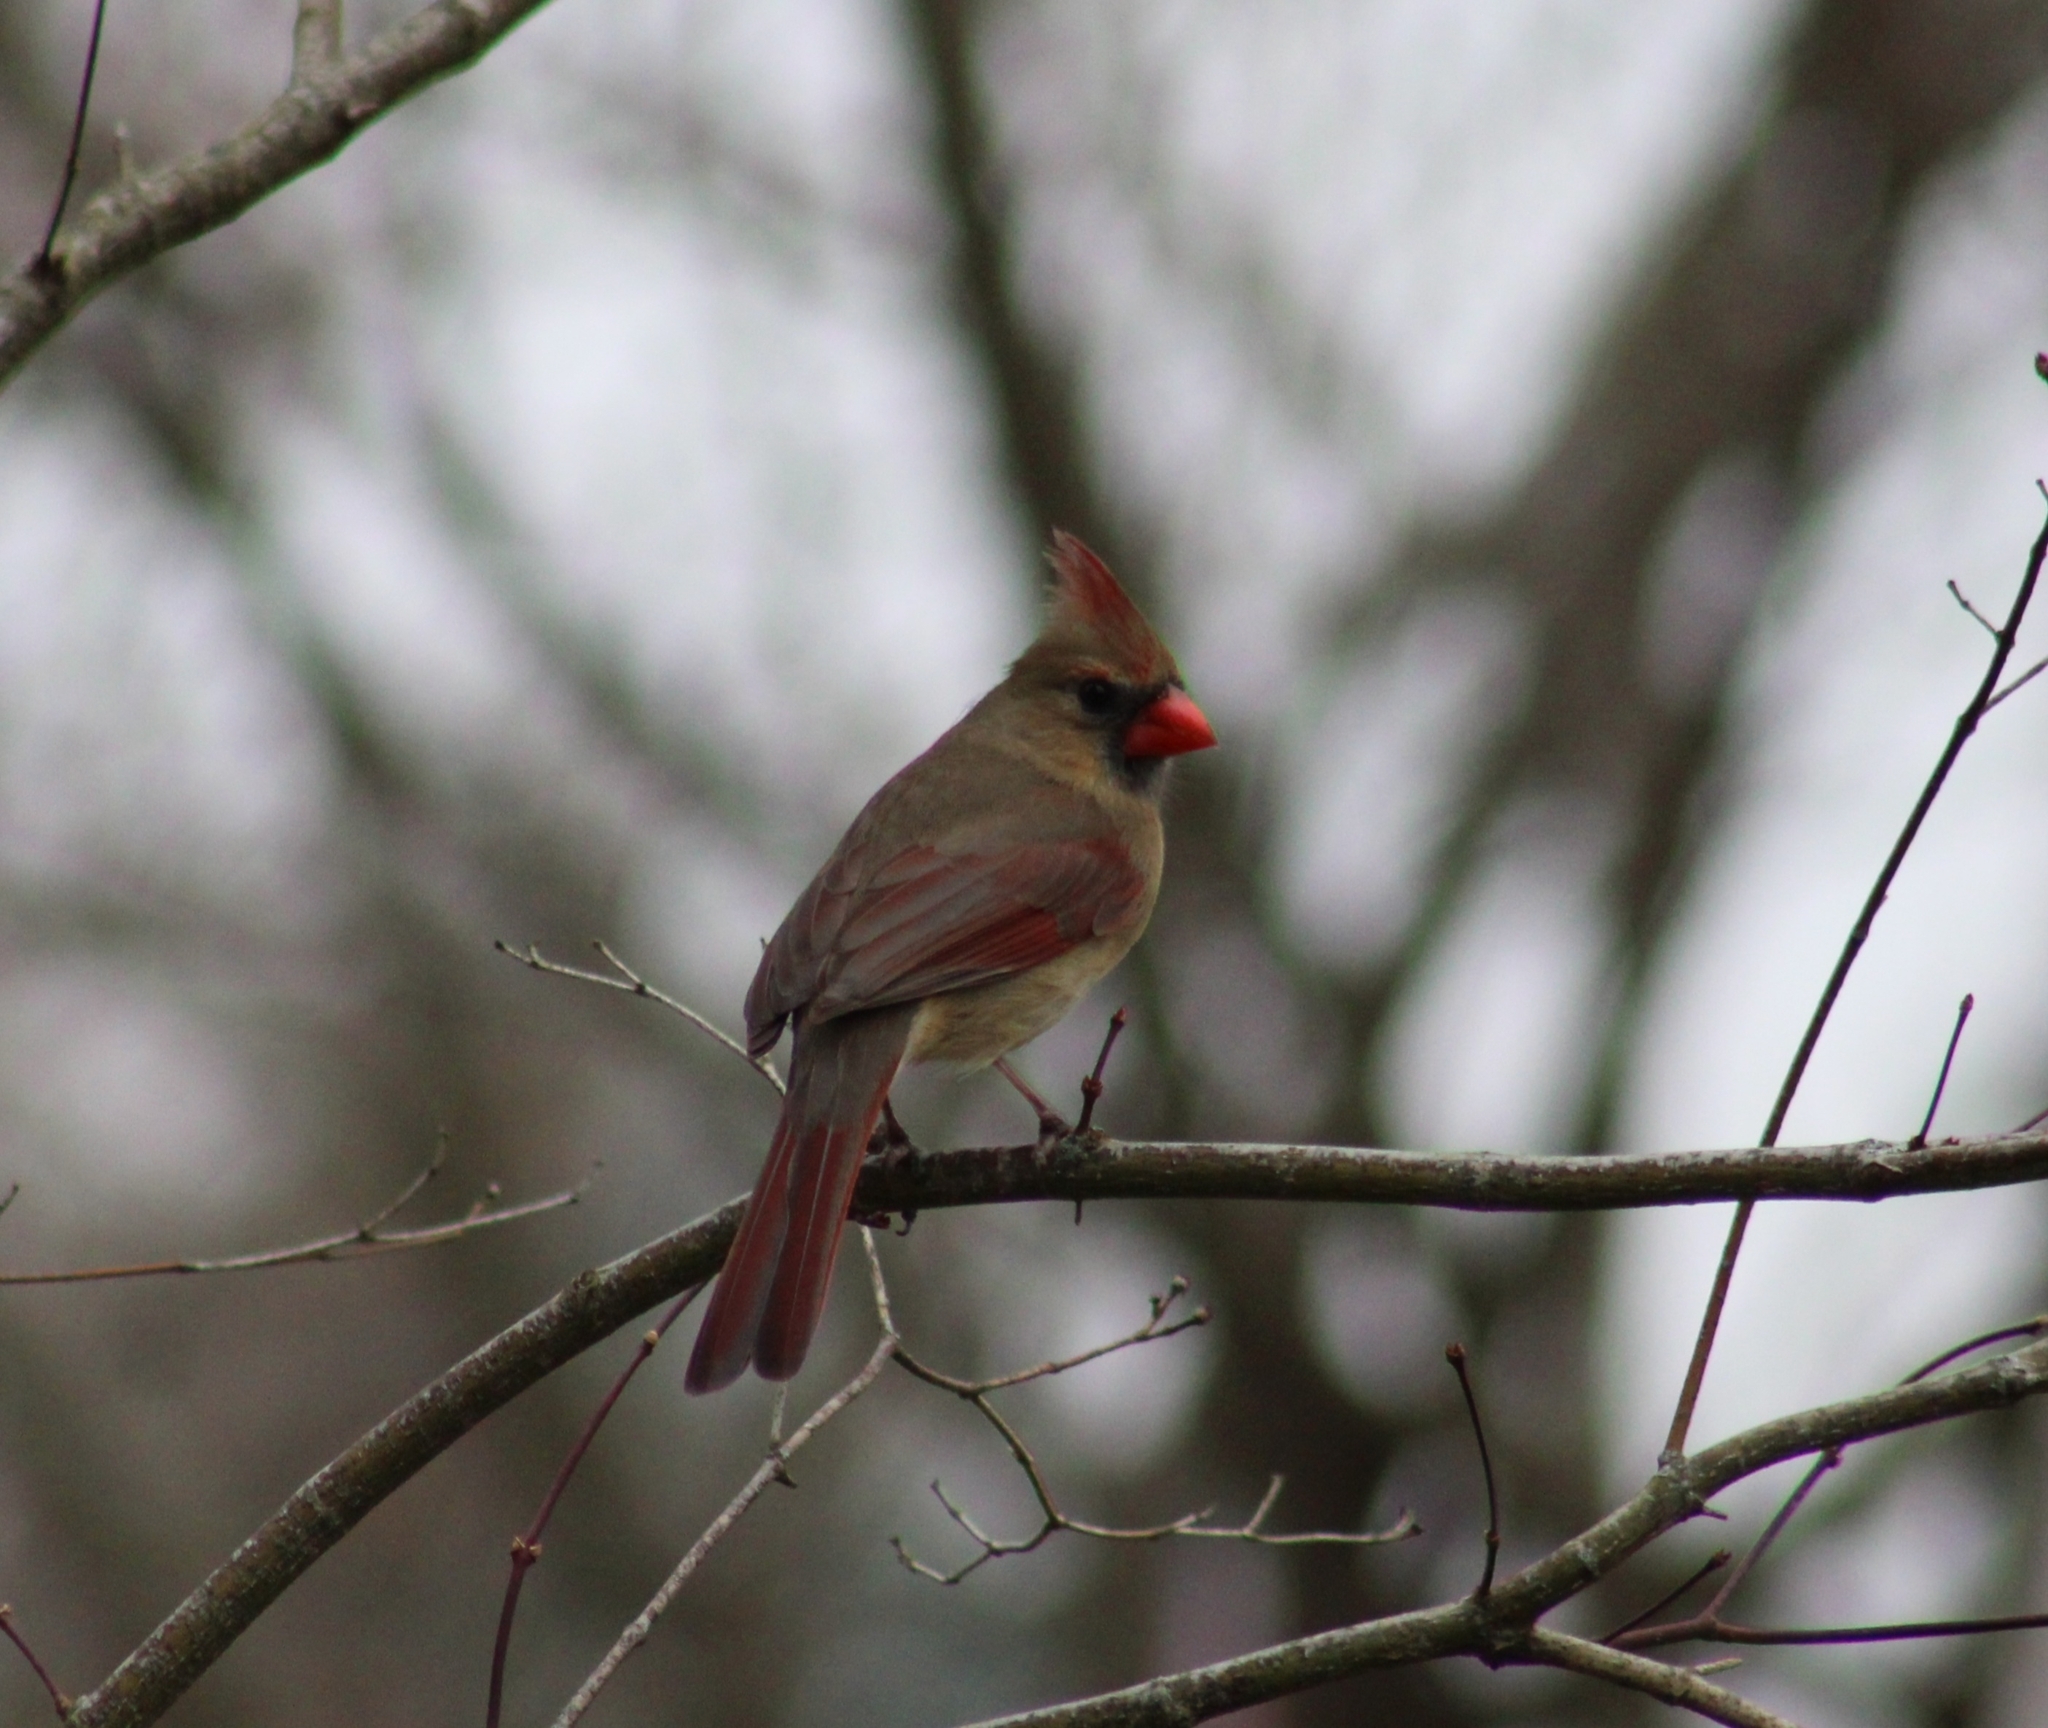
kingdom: Animalia
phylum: Chordata
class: Aves
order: Passeriformes
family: Cardinalidae
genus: Cardinalis
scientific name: Cardinalis cardinalis
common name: Northern cardinal
